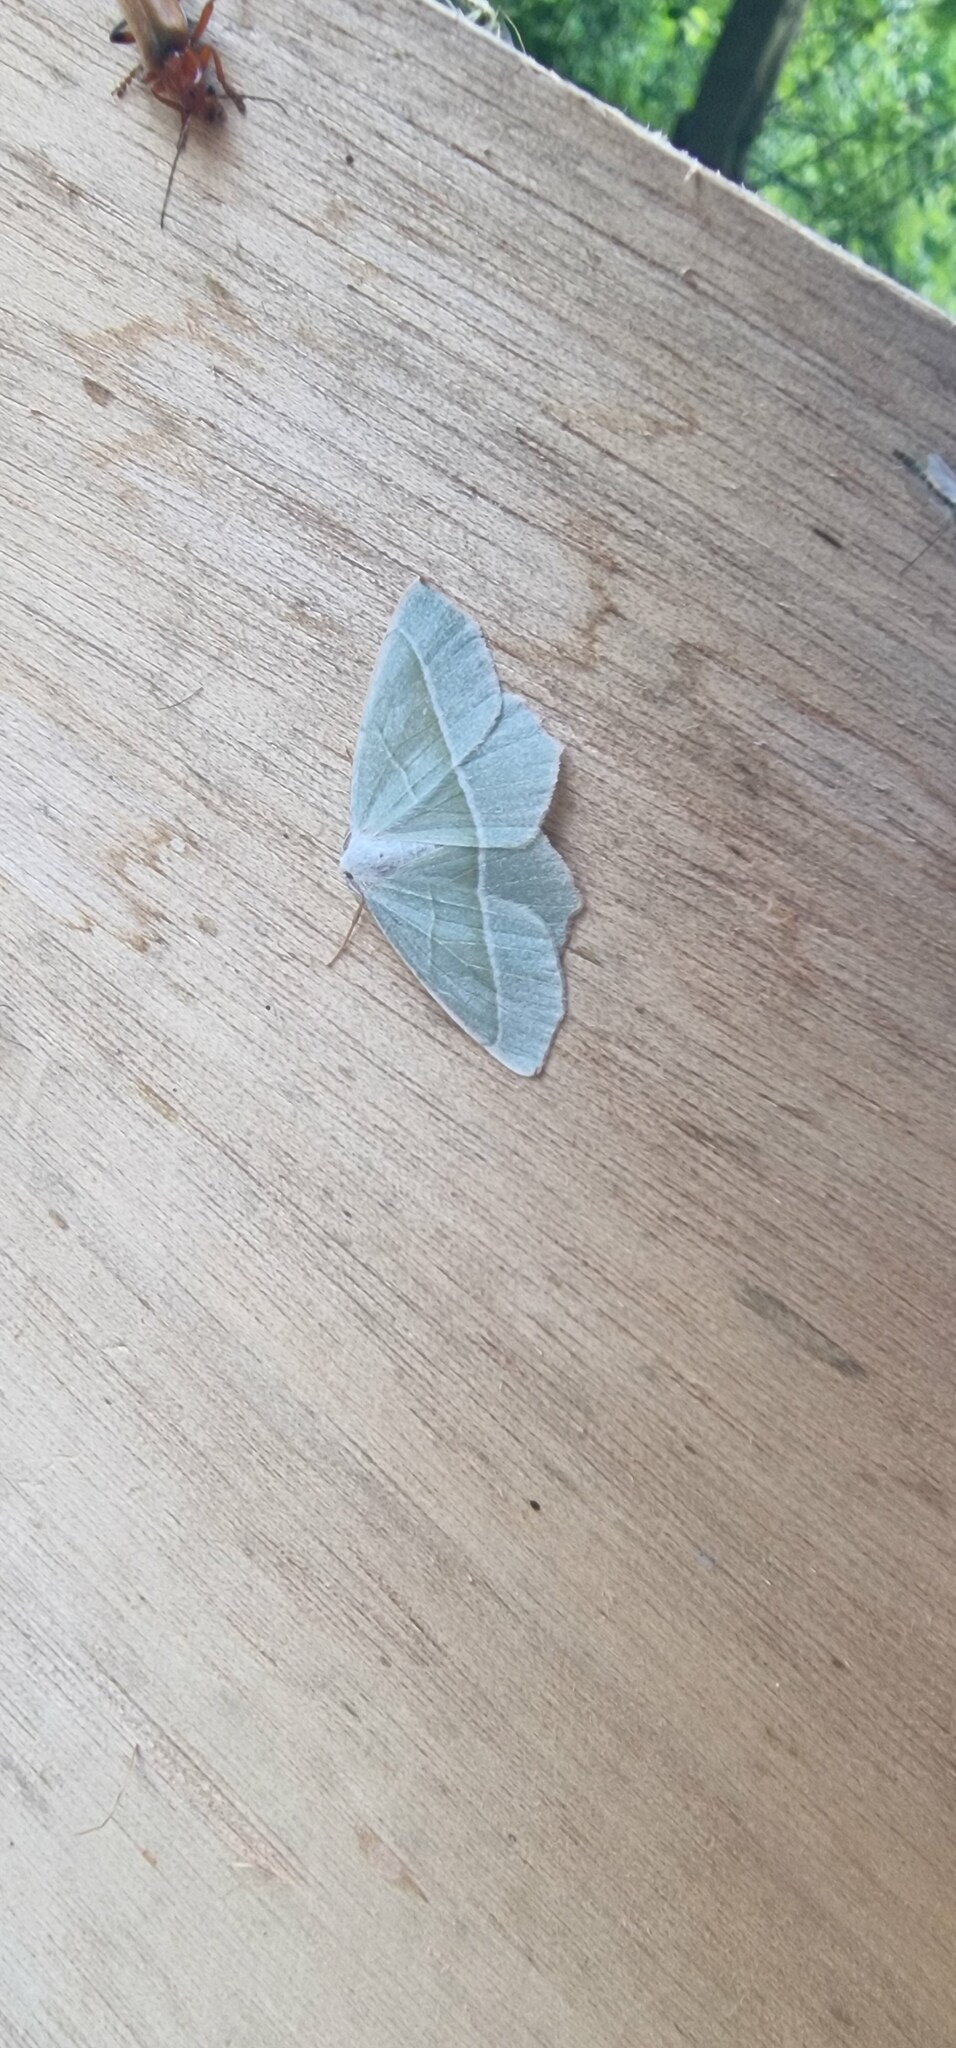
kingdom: Animalia
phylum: Arthropoda
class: Insecta
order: Lepidoptera
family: Geometridae
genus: Campaea
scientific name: Campaea margaritaria
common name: Light emerald
